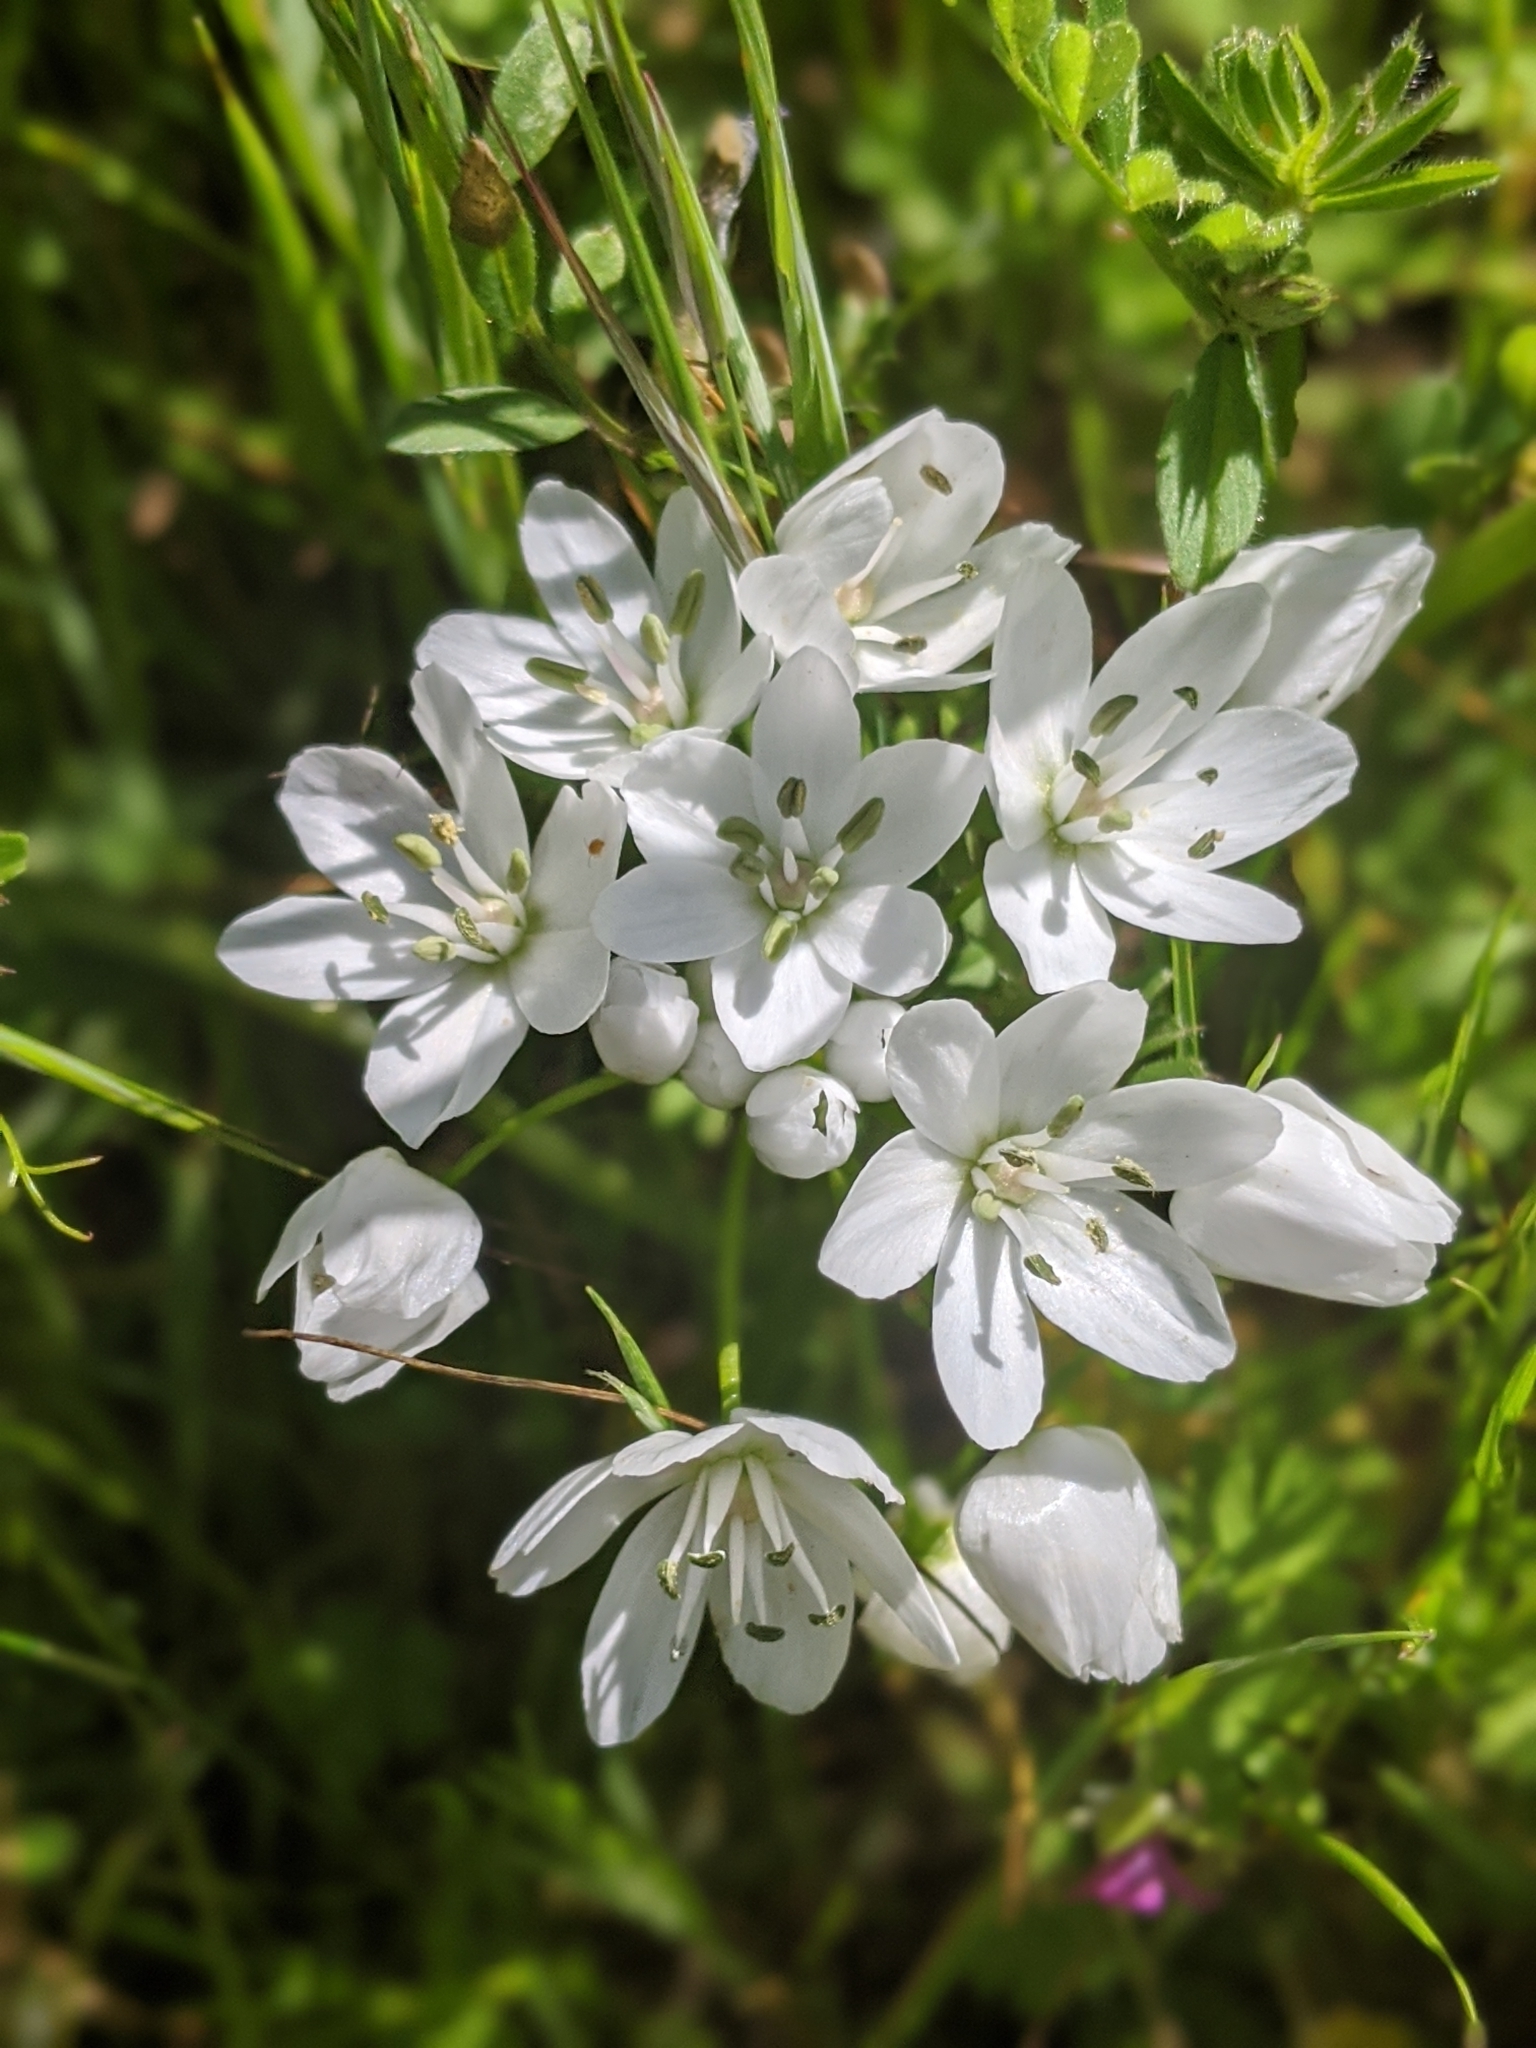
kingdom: Plantae
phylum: Tracheophyta
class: Liliopsida
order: Asparagales
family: Amaryllidaceae
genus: Allium
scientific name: Allium neapolitanum
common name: Neapolitan garlic
